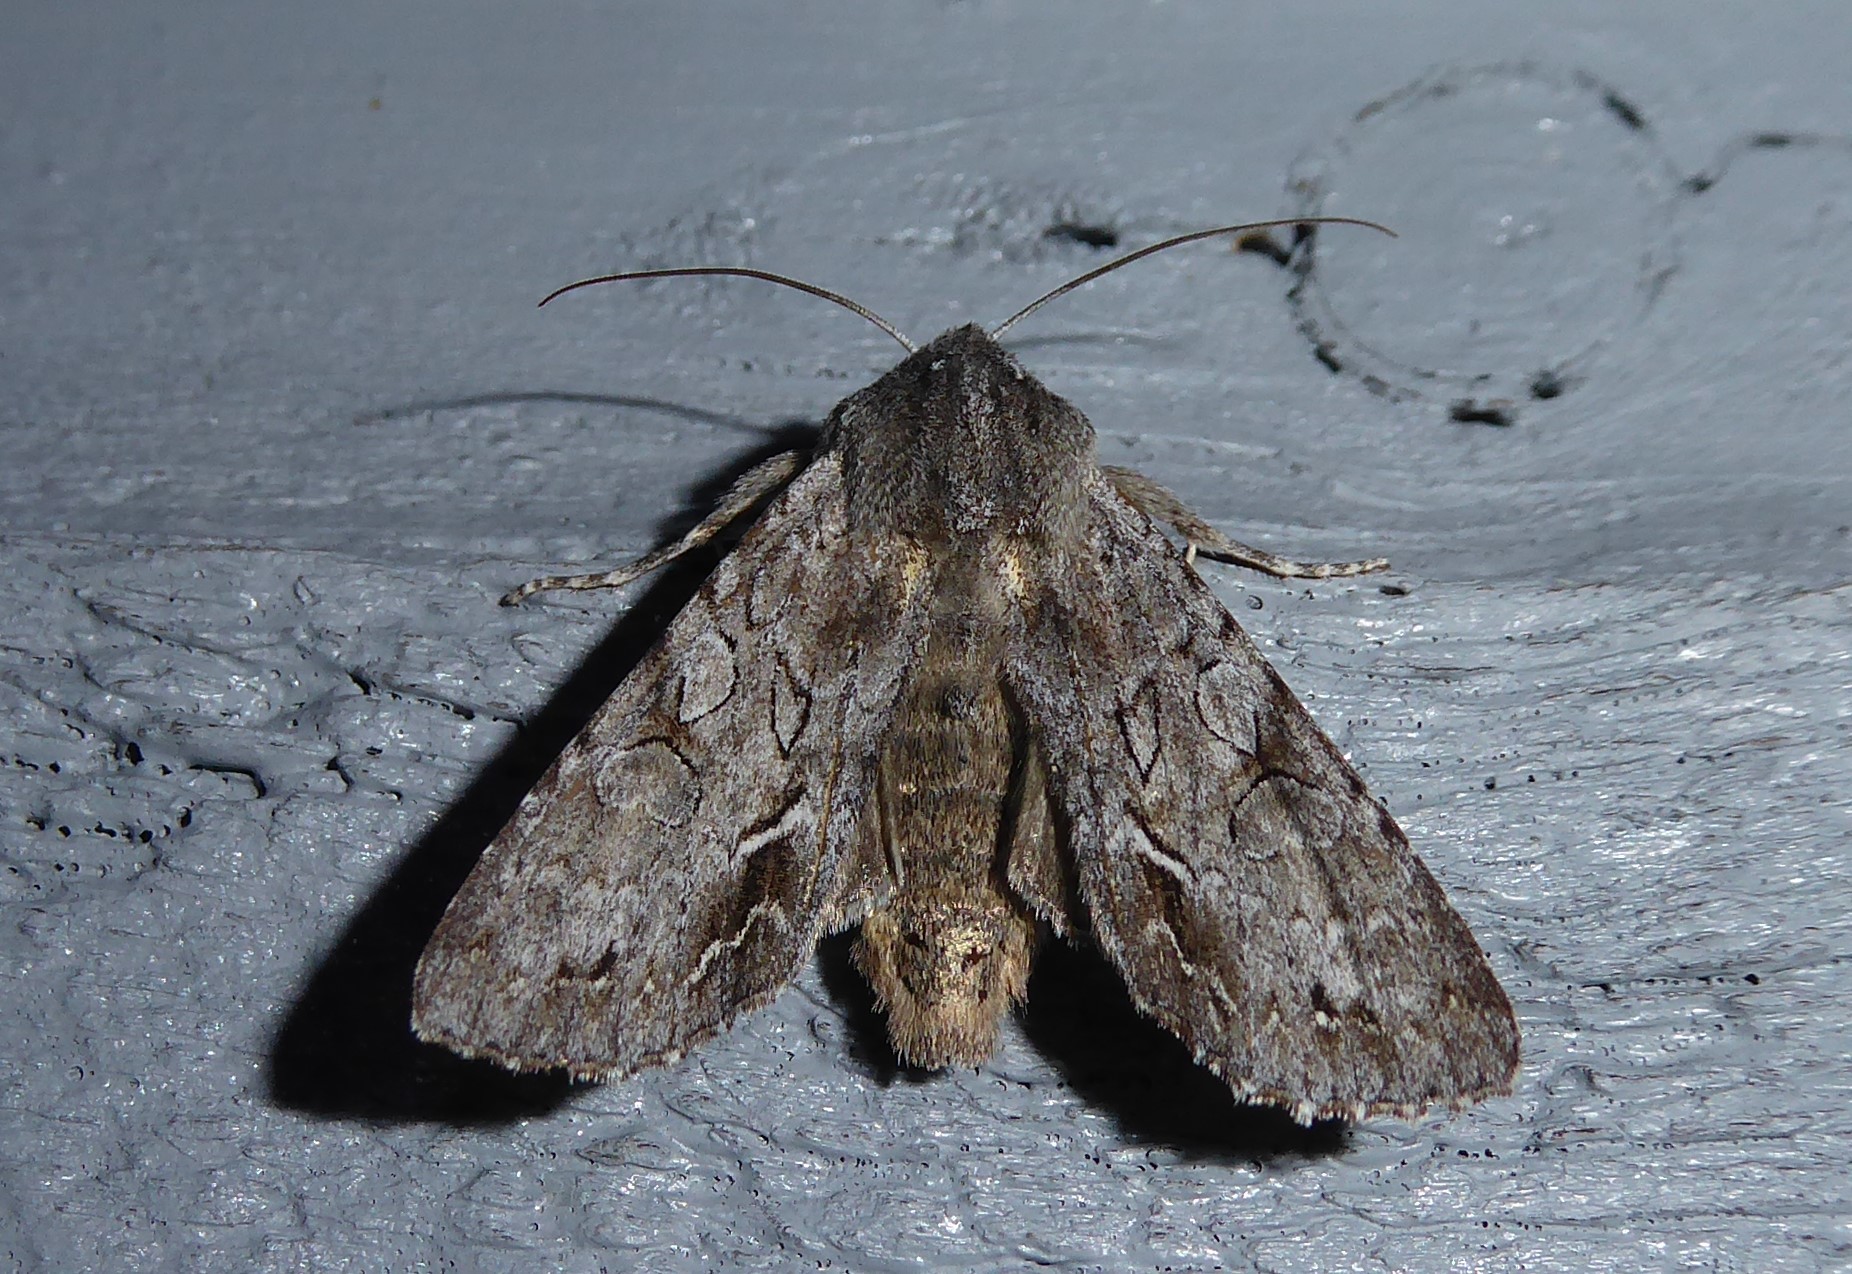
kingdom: Animalia
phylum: Arthropoda
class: Insecta
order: Lepidoptera
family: Noctuidae
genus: Ichneutica
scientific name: Ichneutica
